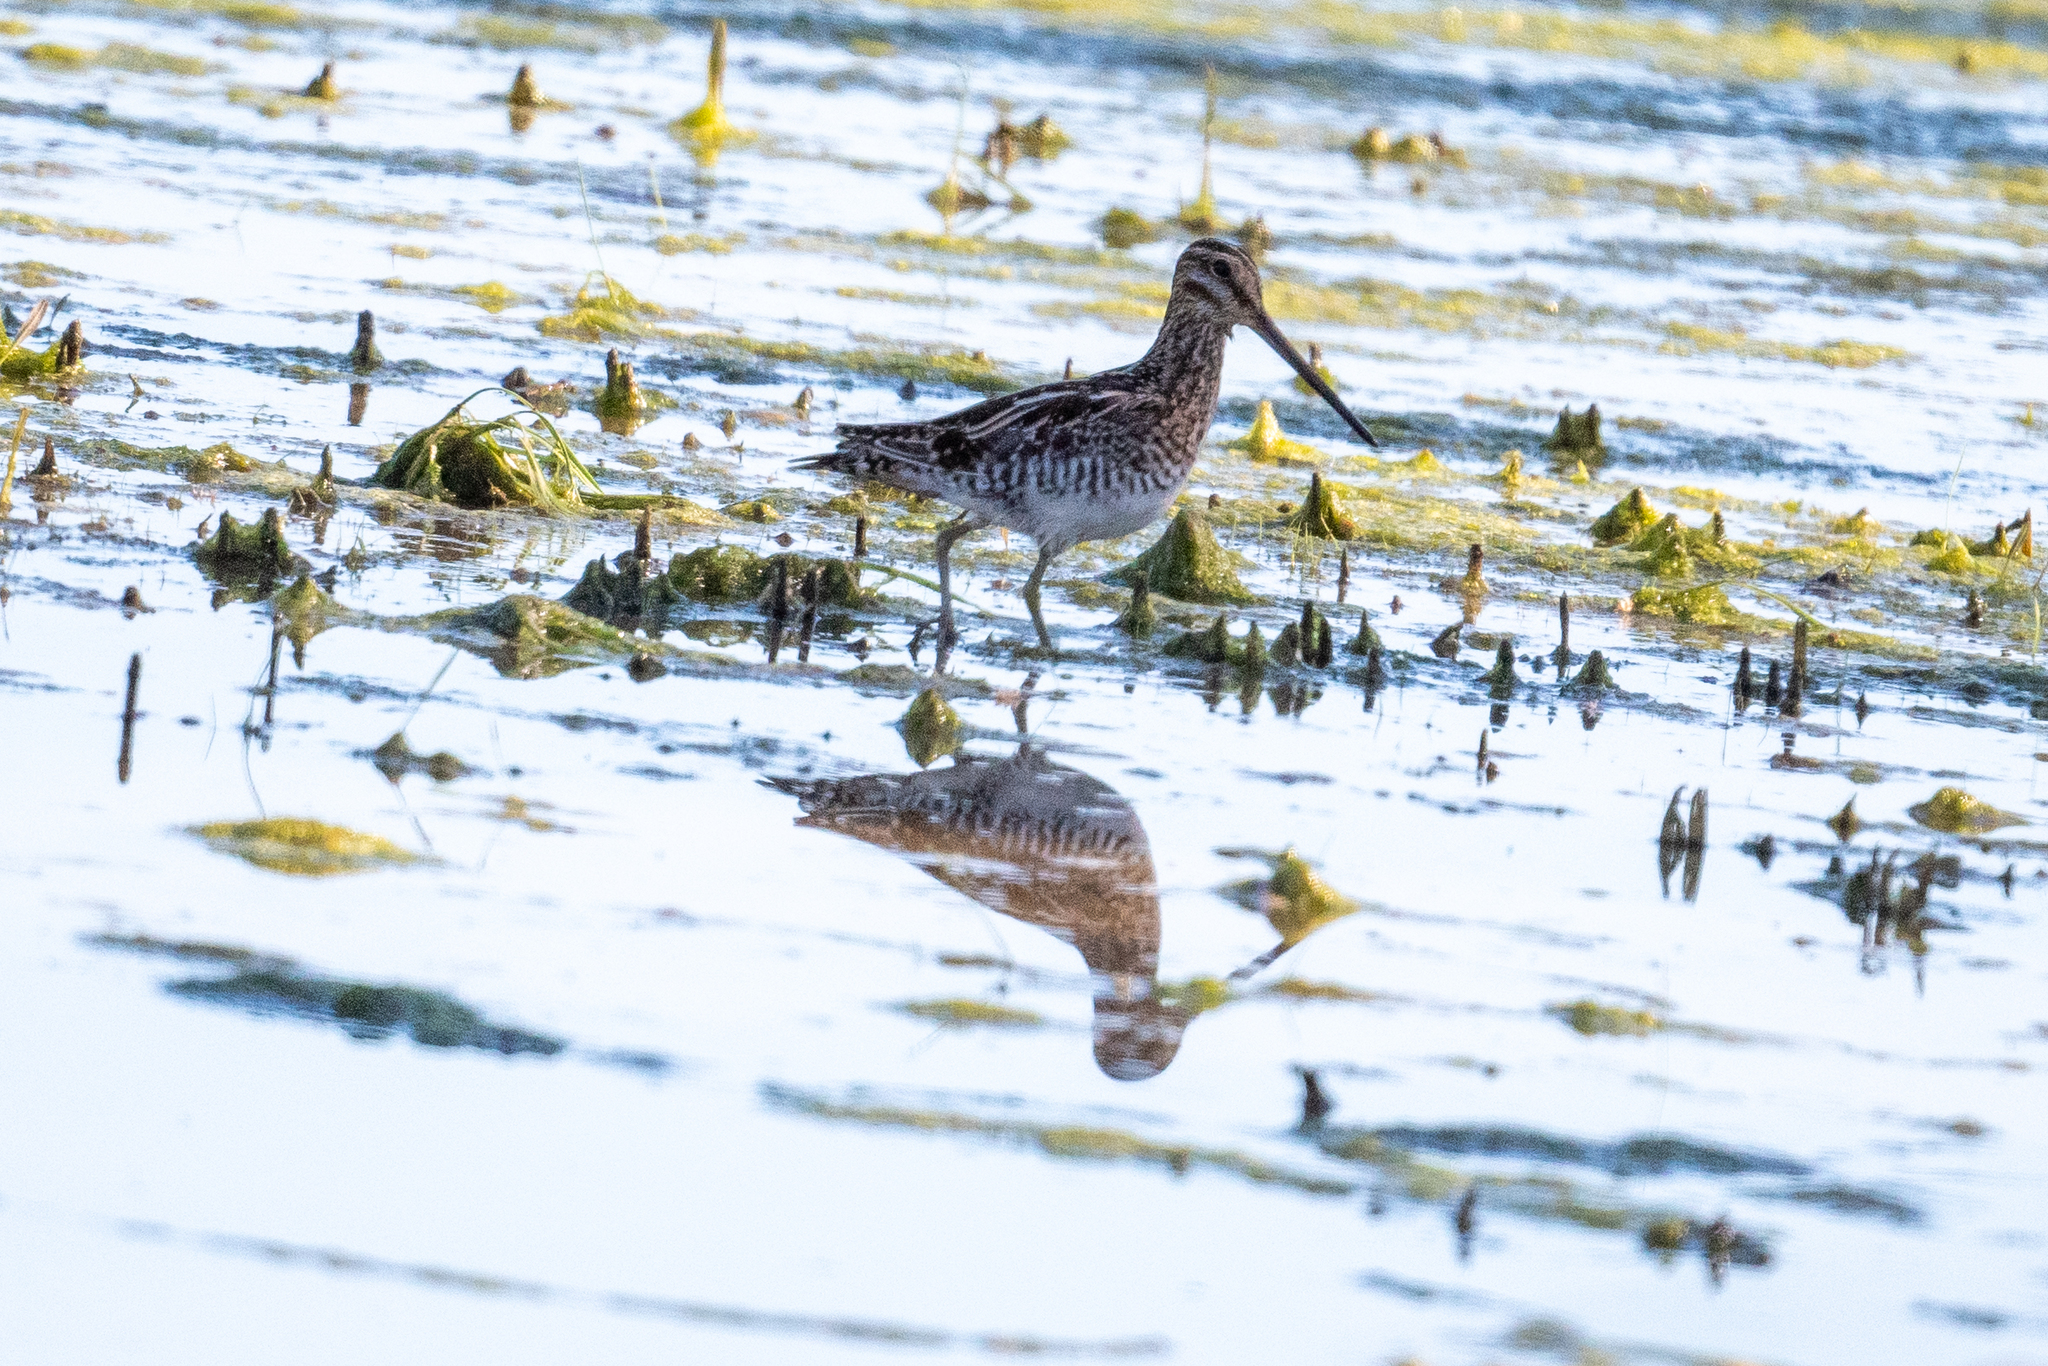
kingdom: Animalia
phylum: Chordata
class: Aves
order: Charadriiformes
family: Scolopacidae
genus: Gallinago
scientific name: Gallinago delicata
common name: Wilson's snipe
